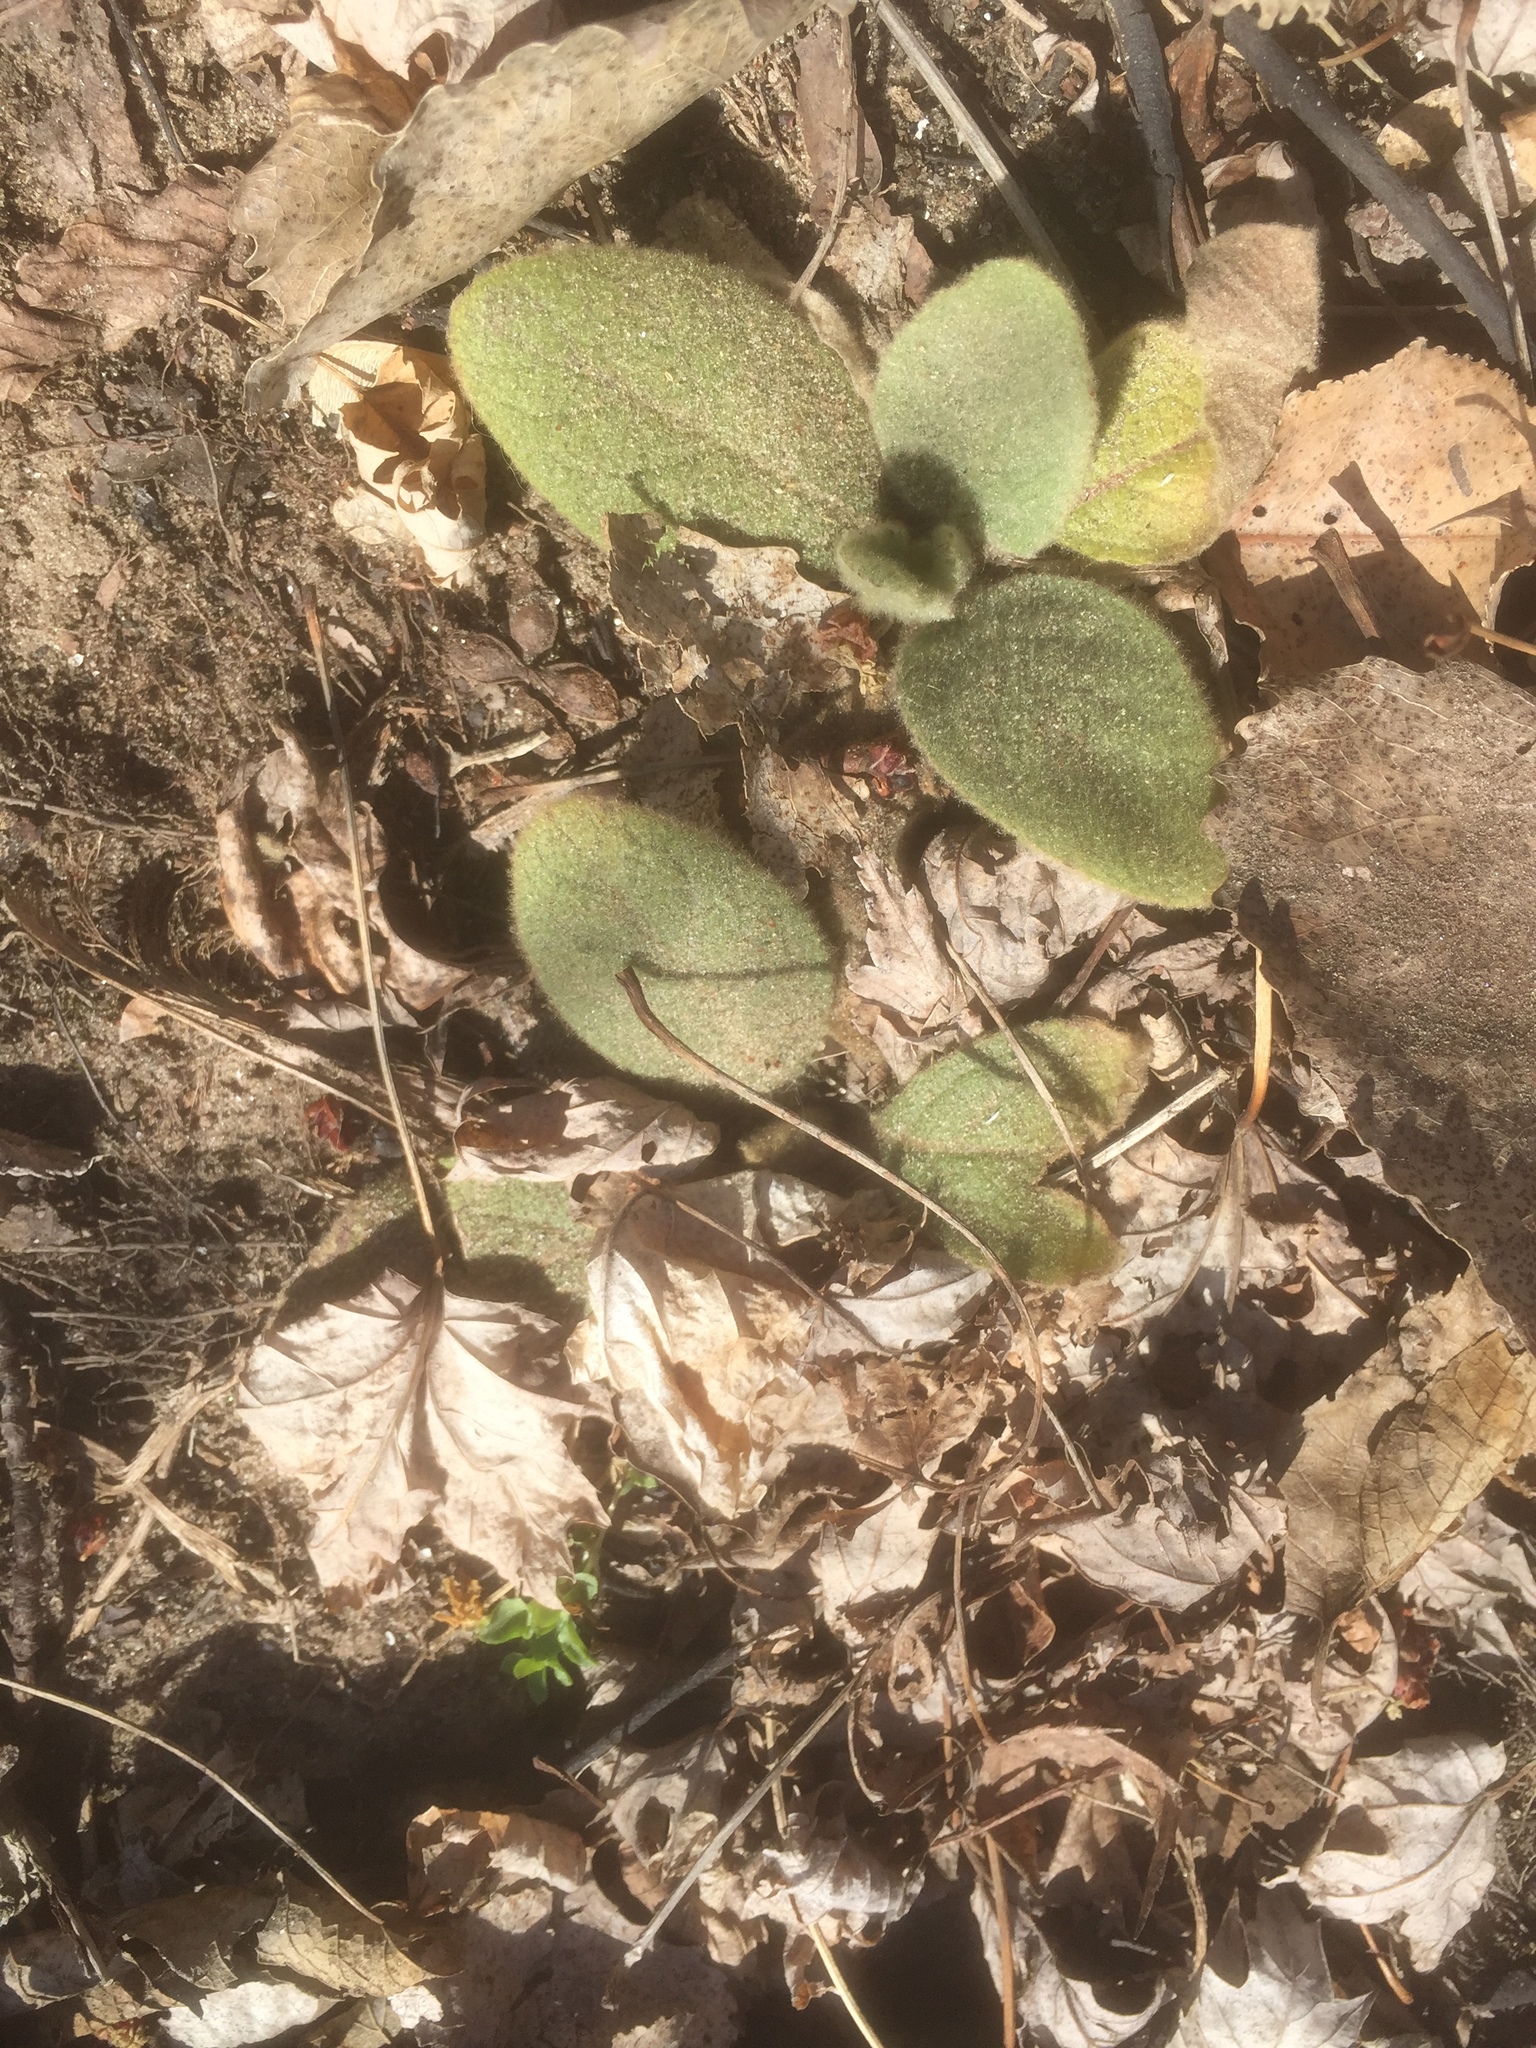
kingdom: Plantae
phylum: Tracheophyta
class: Magnoliopsida
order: Lamiales
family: Scrophulariaceae
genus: Verbascum
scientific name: Verbascum thapsus
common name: Common mullein
